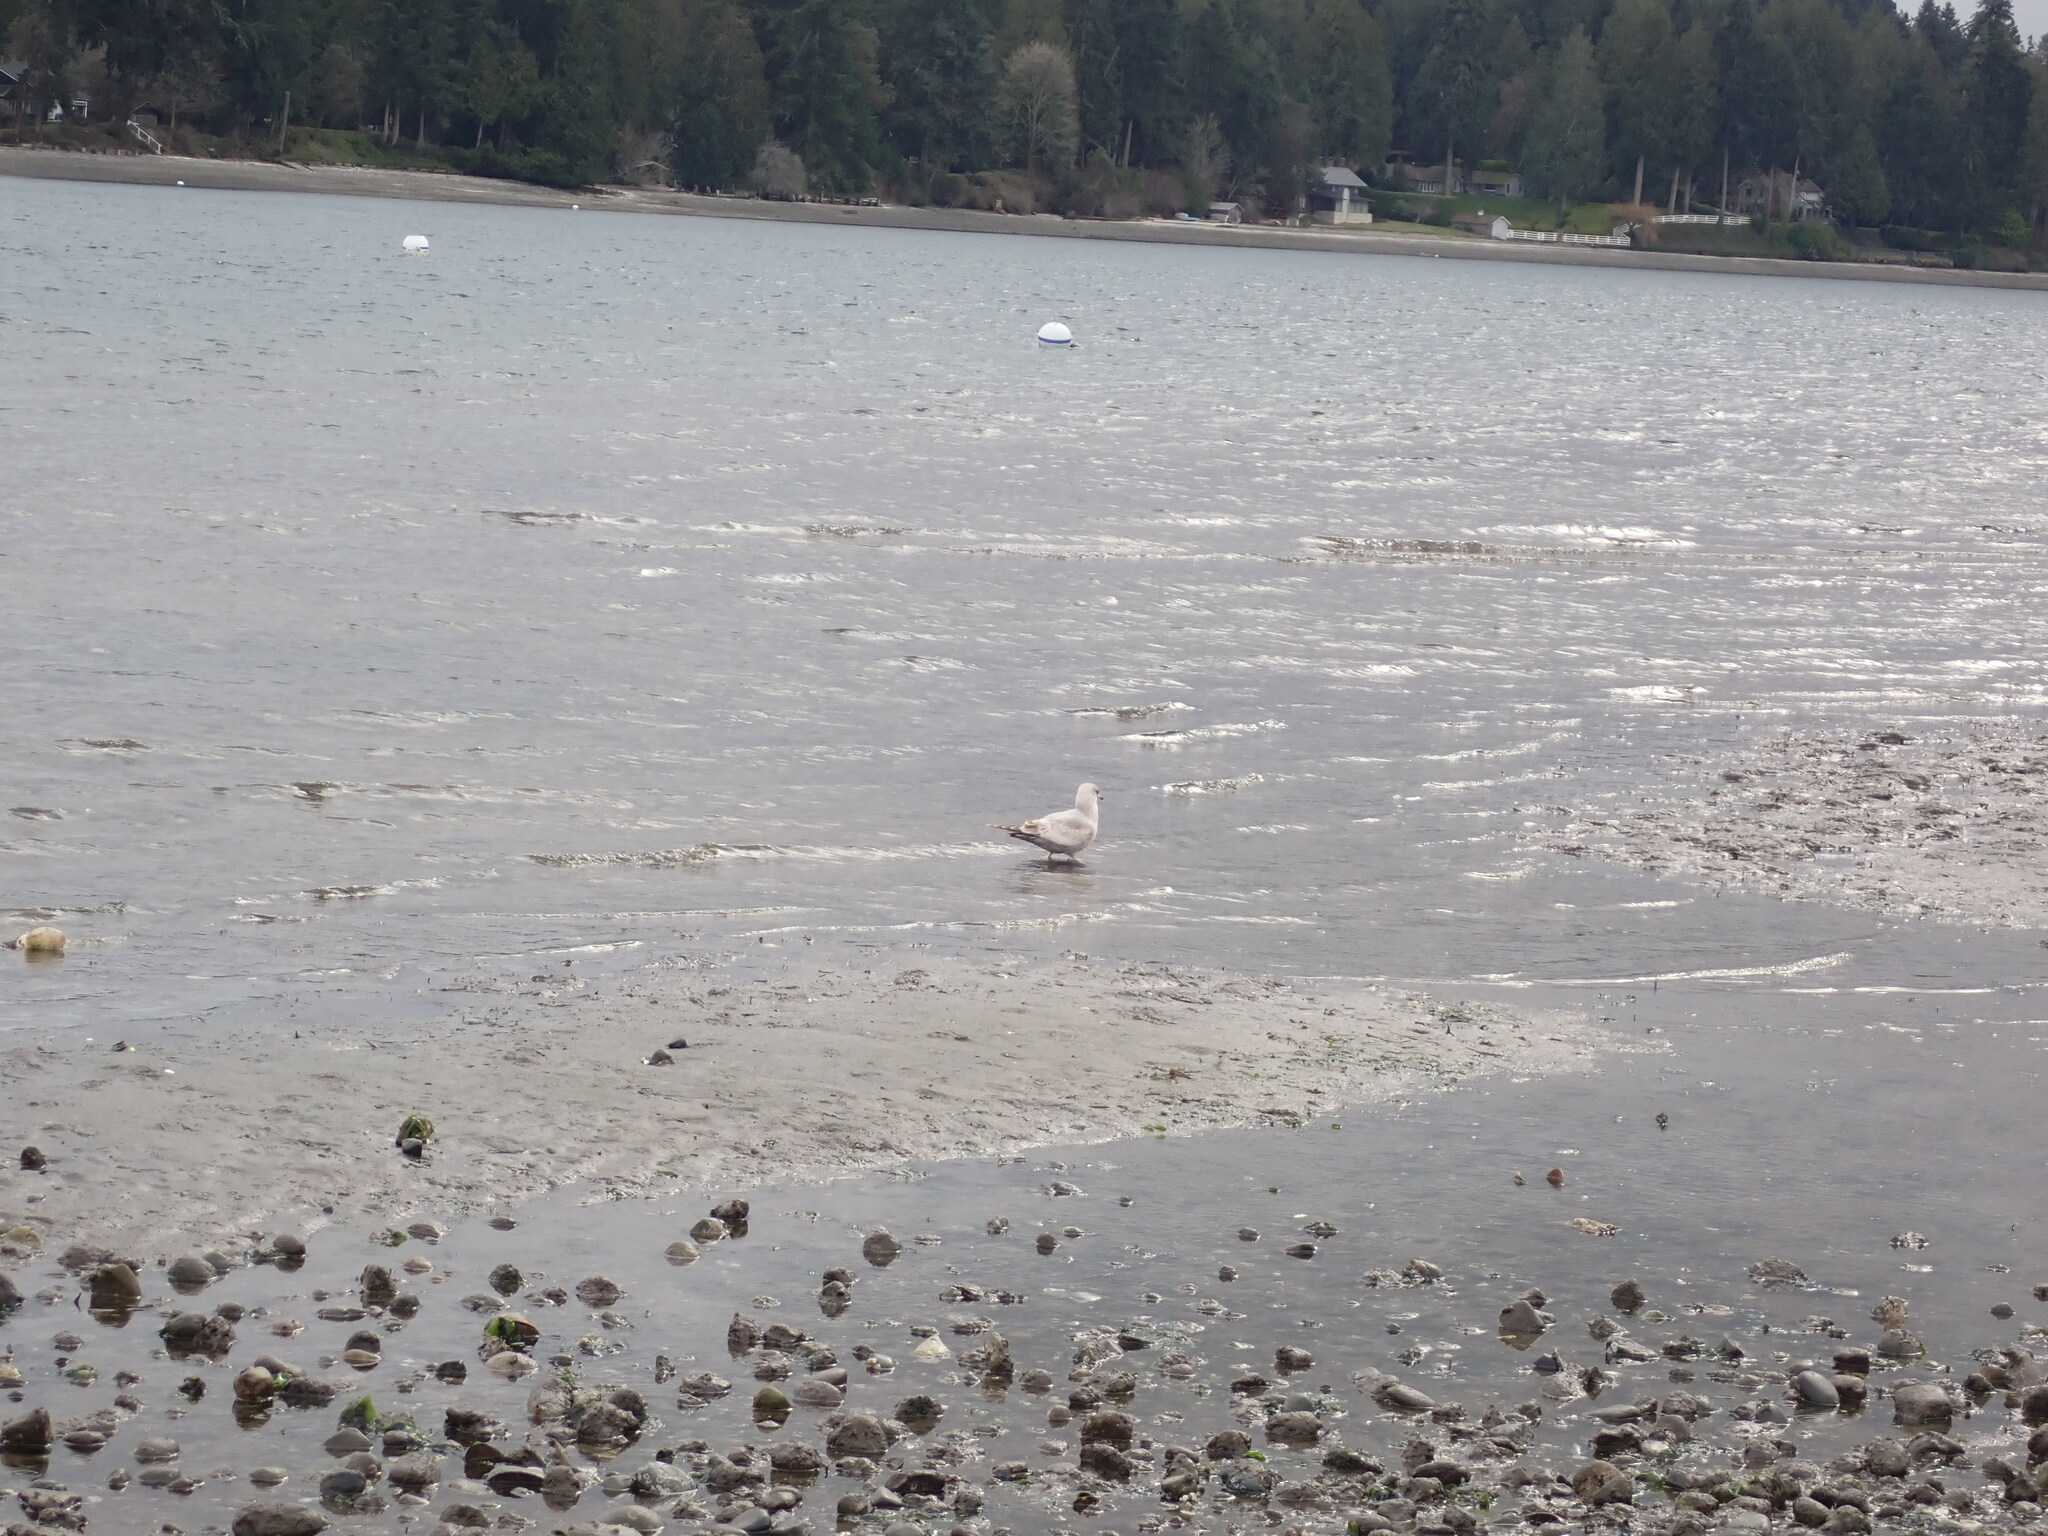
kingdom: Animalia
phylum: Chordata
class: Aves
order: Charadriiformes
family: Laridae
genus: Larus
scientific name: Larus brachyrhynchus
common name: Short-billed gull
